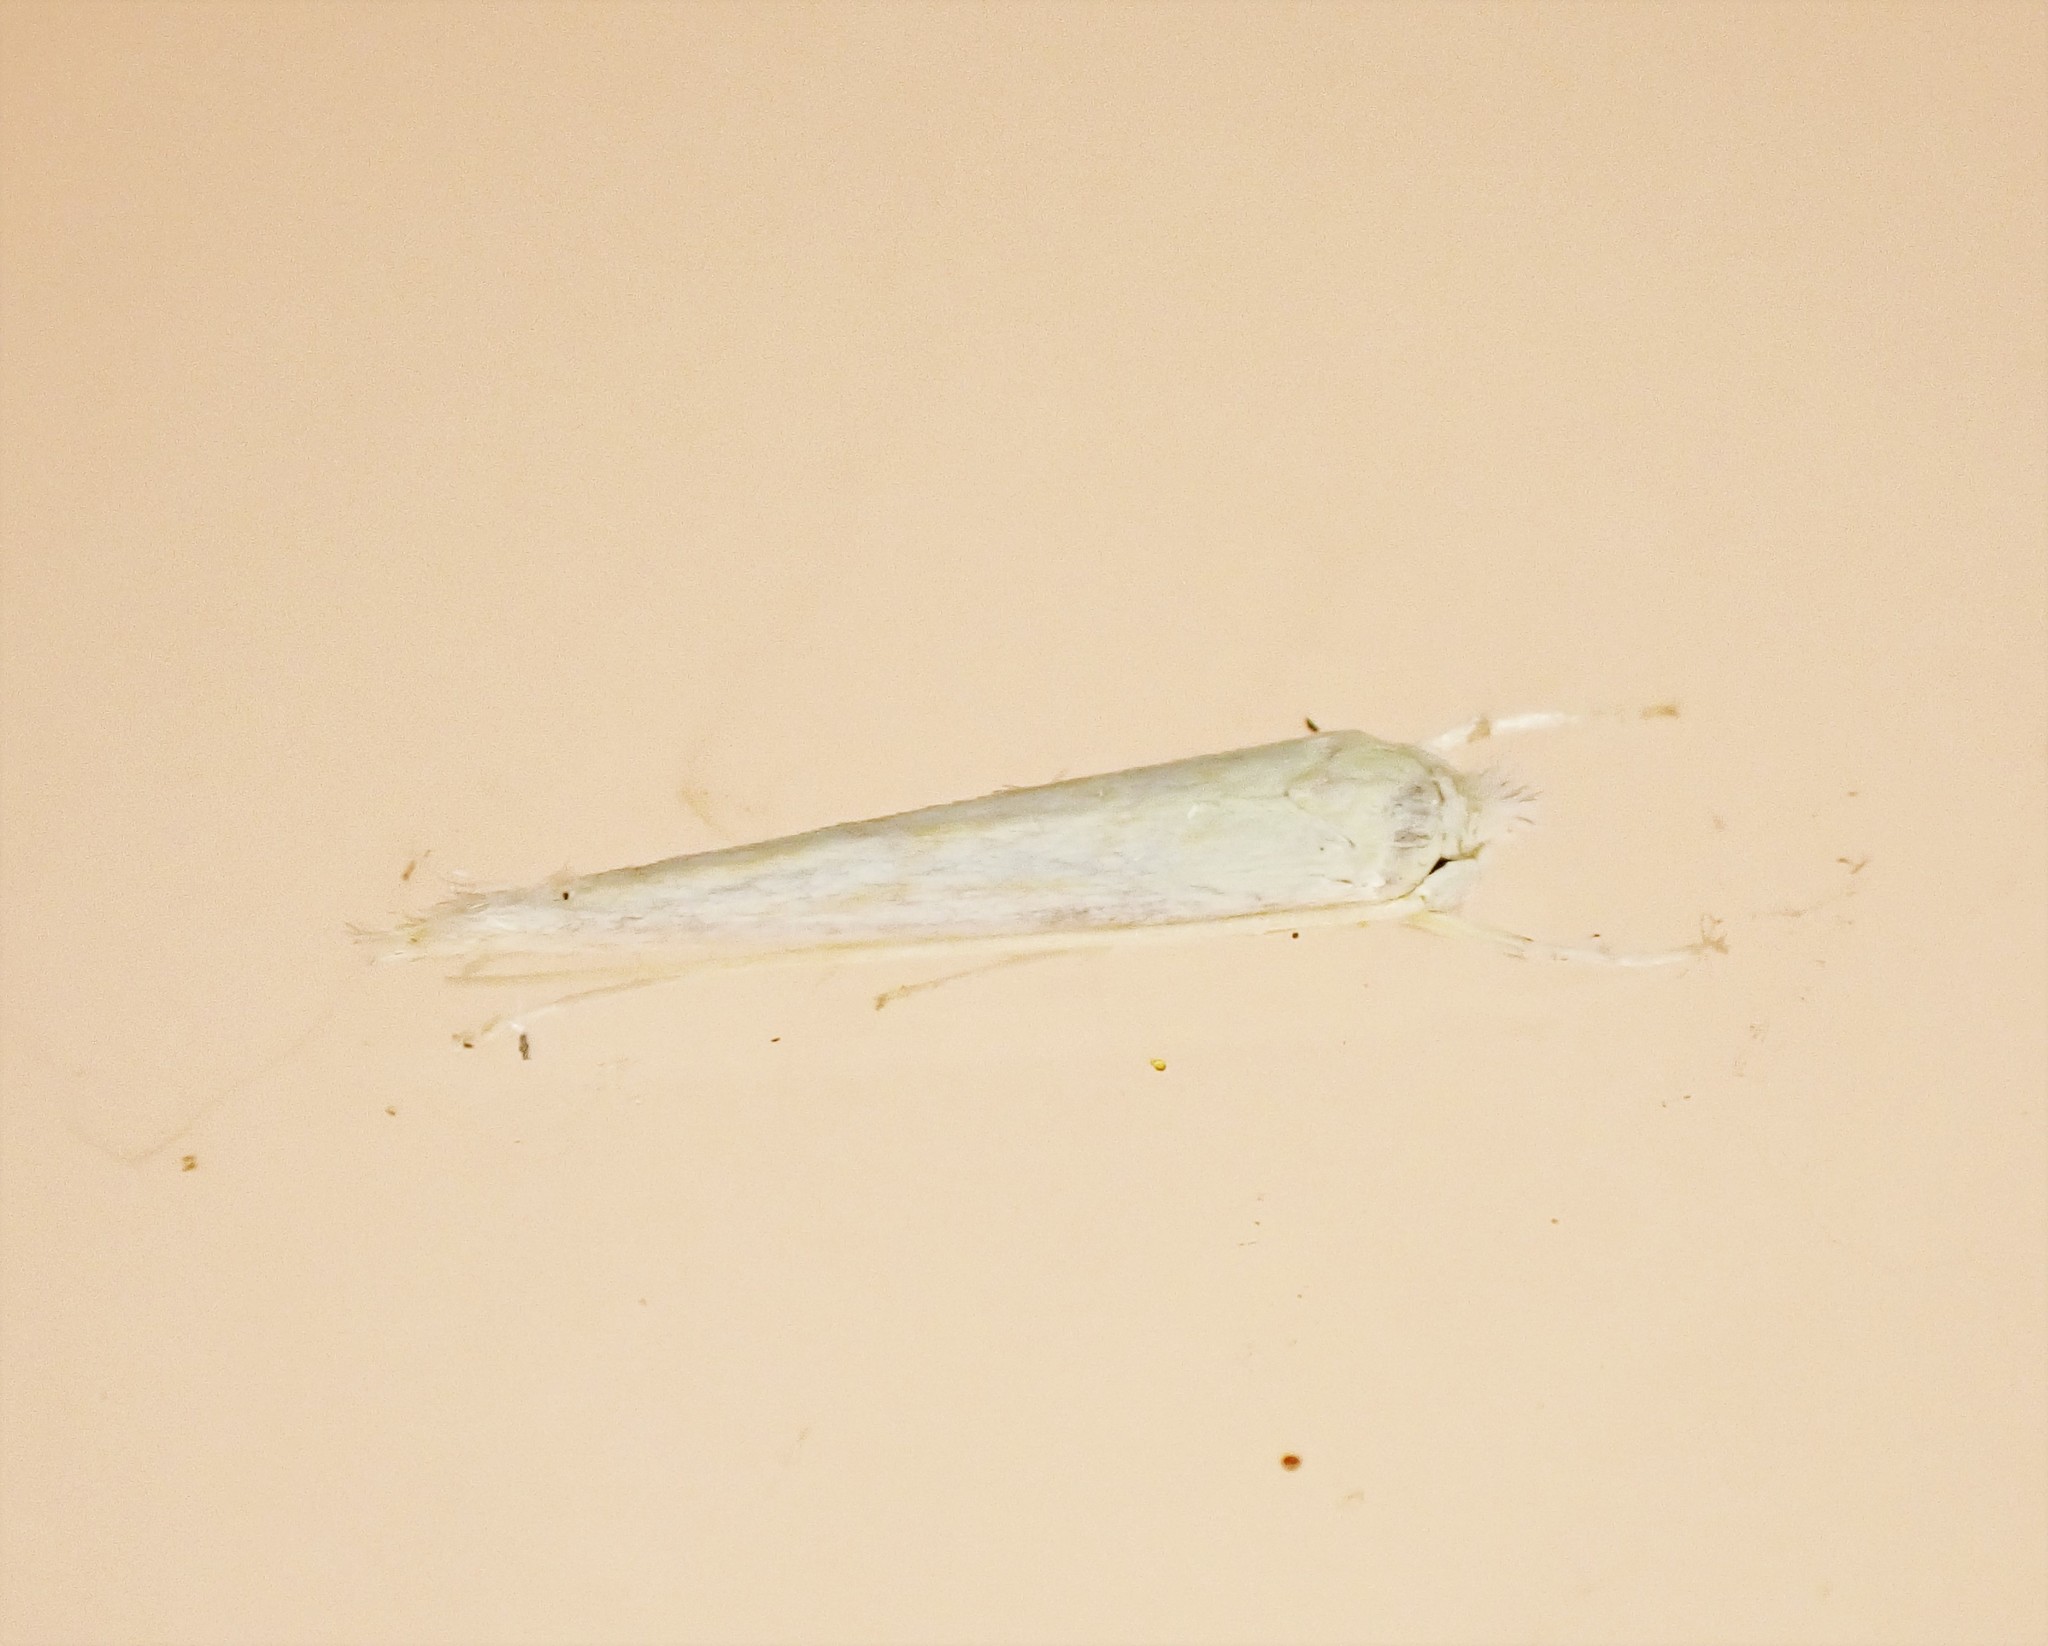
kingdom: Animalia
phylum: Arthropoda
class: Insecta
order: Lepidoptera
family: Lyonetiidae
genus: Stegommata
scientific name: Stegommata sulfuratella
